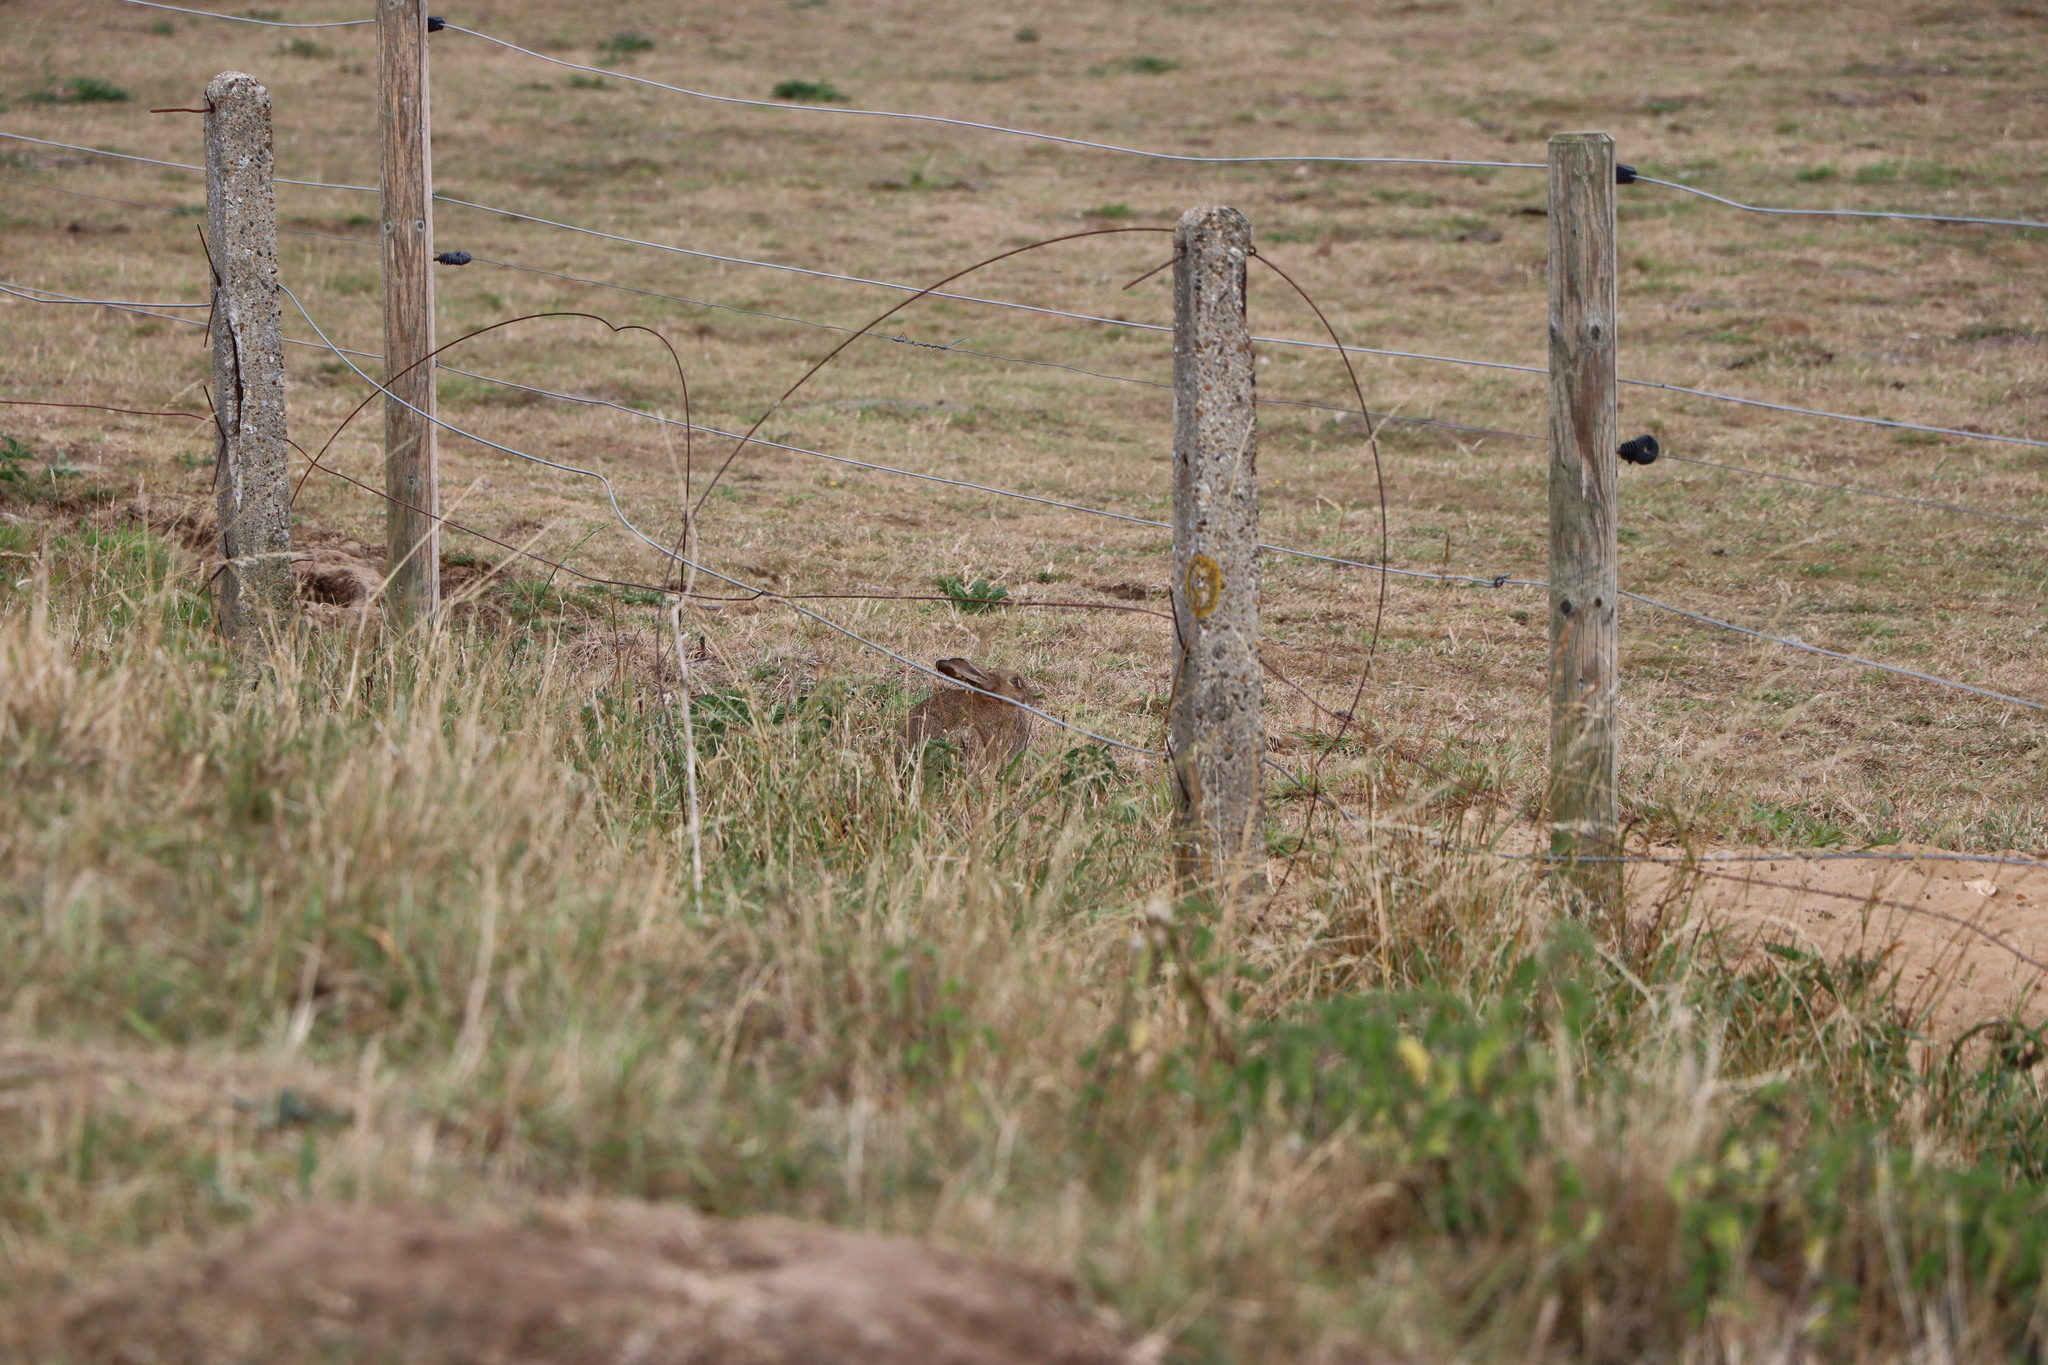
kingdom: Animalia
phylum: Chordata
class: Mammalia
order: Lagomorpha
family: Leporidae
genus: Lepus
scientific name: Lepus europaeus
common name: European hare
